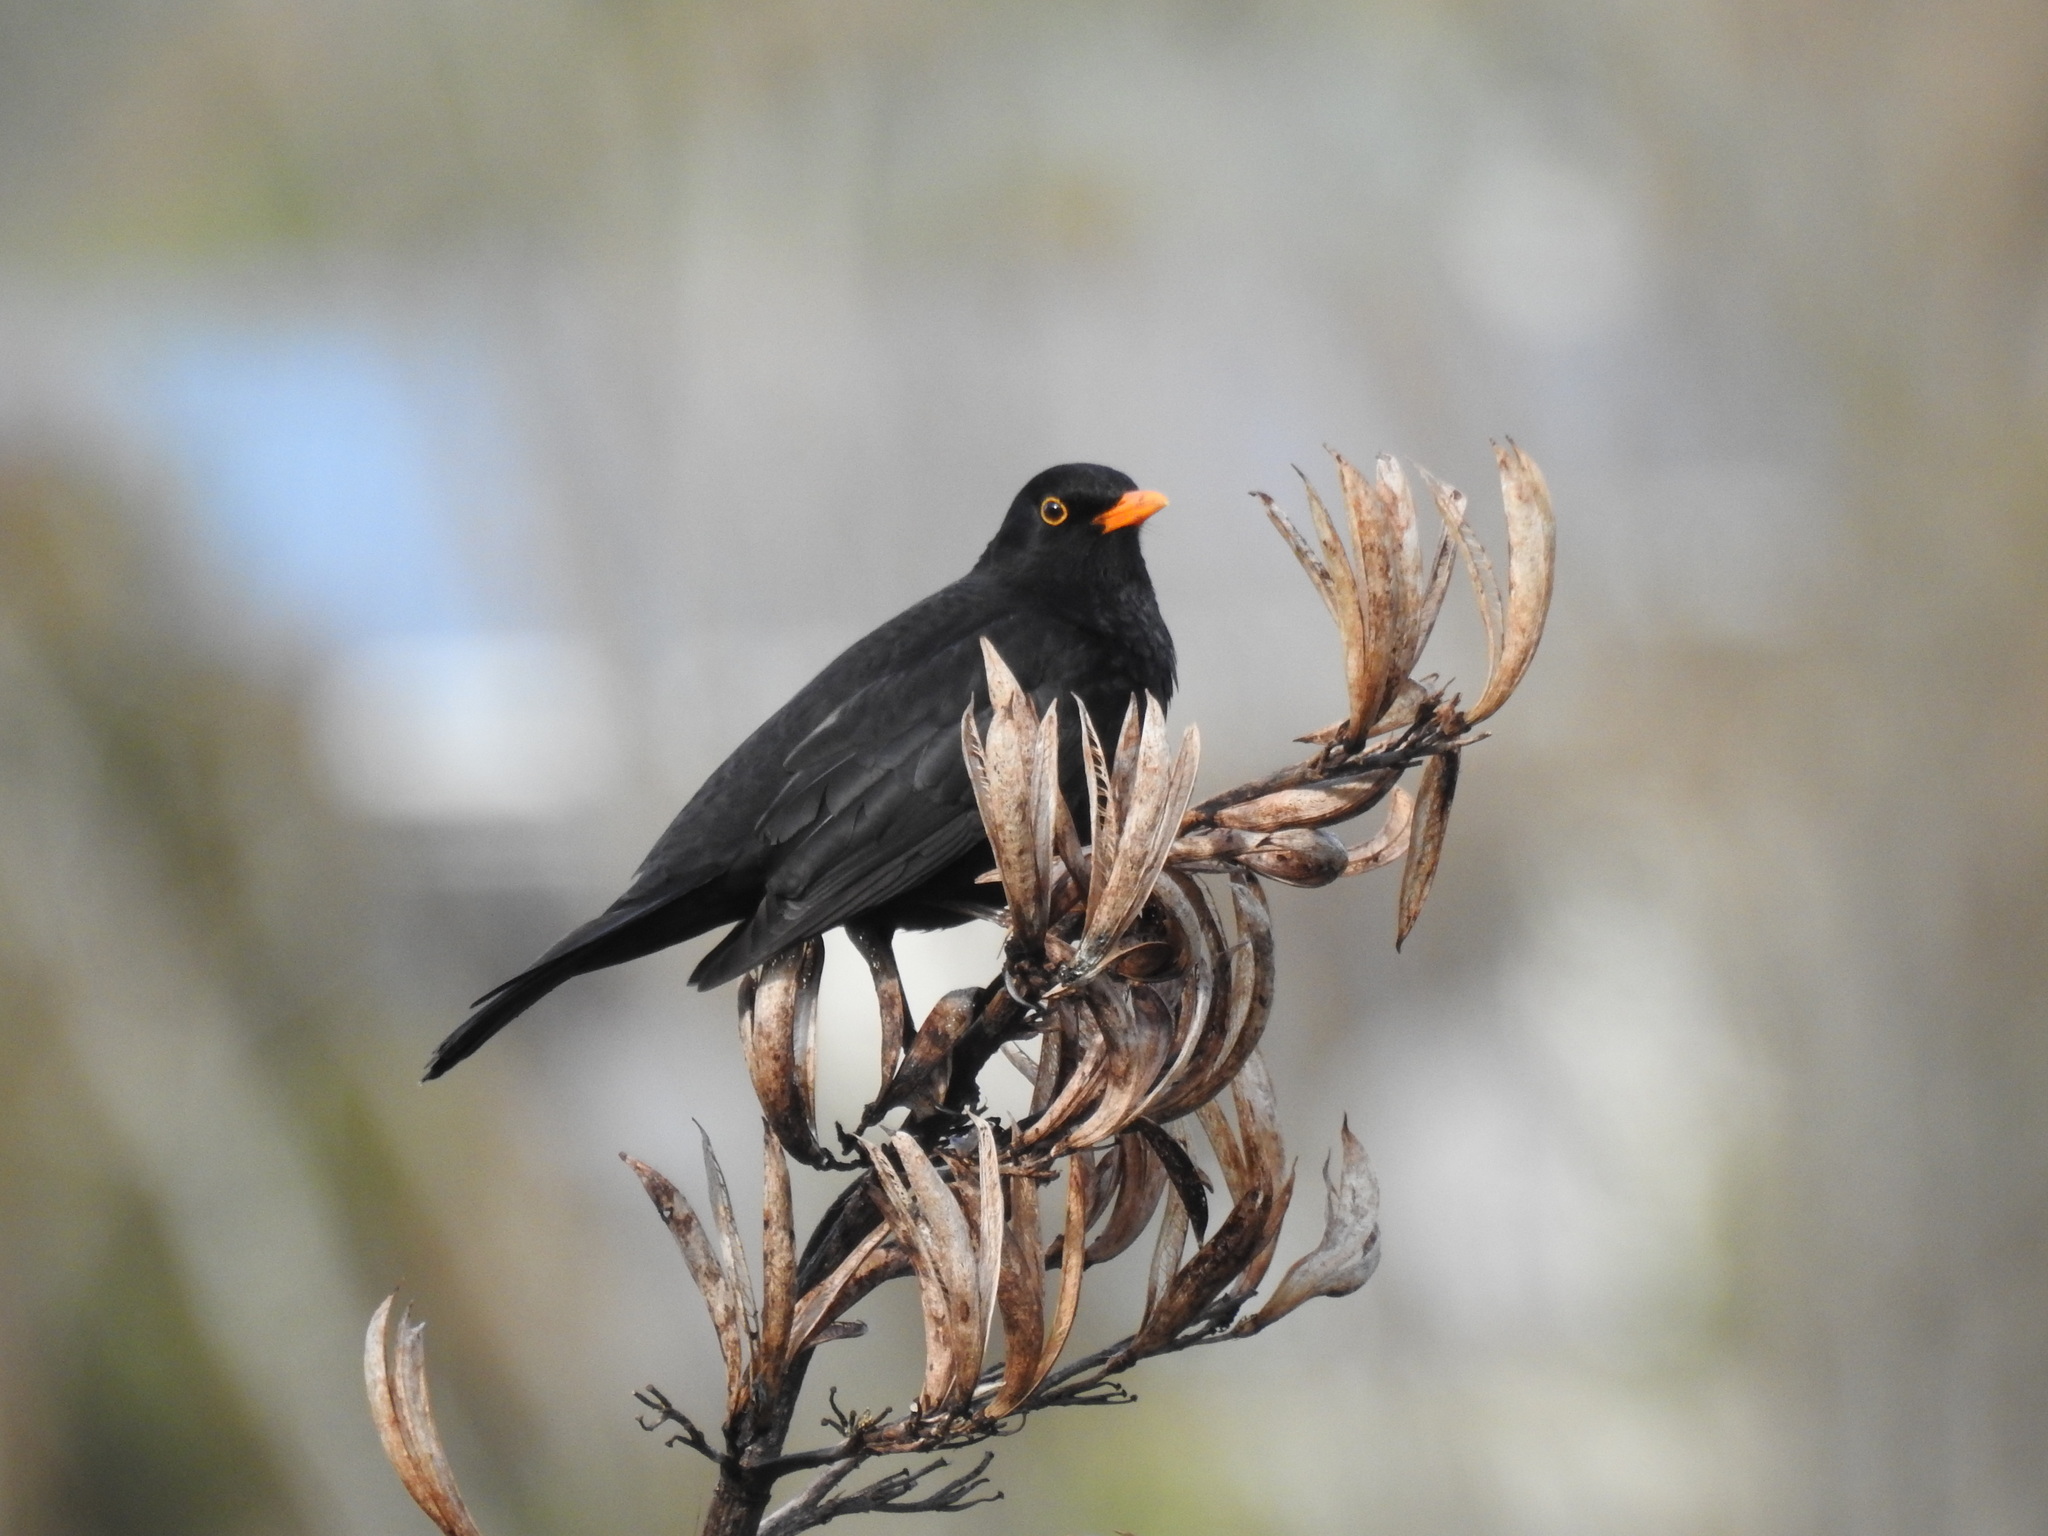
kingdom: Animalia
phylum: Chordata
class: Aves
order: Passeriformes
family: Turdidae
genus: Turdus
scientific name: Turdus merula
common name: Common blackbird
